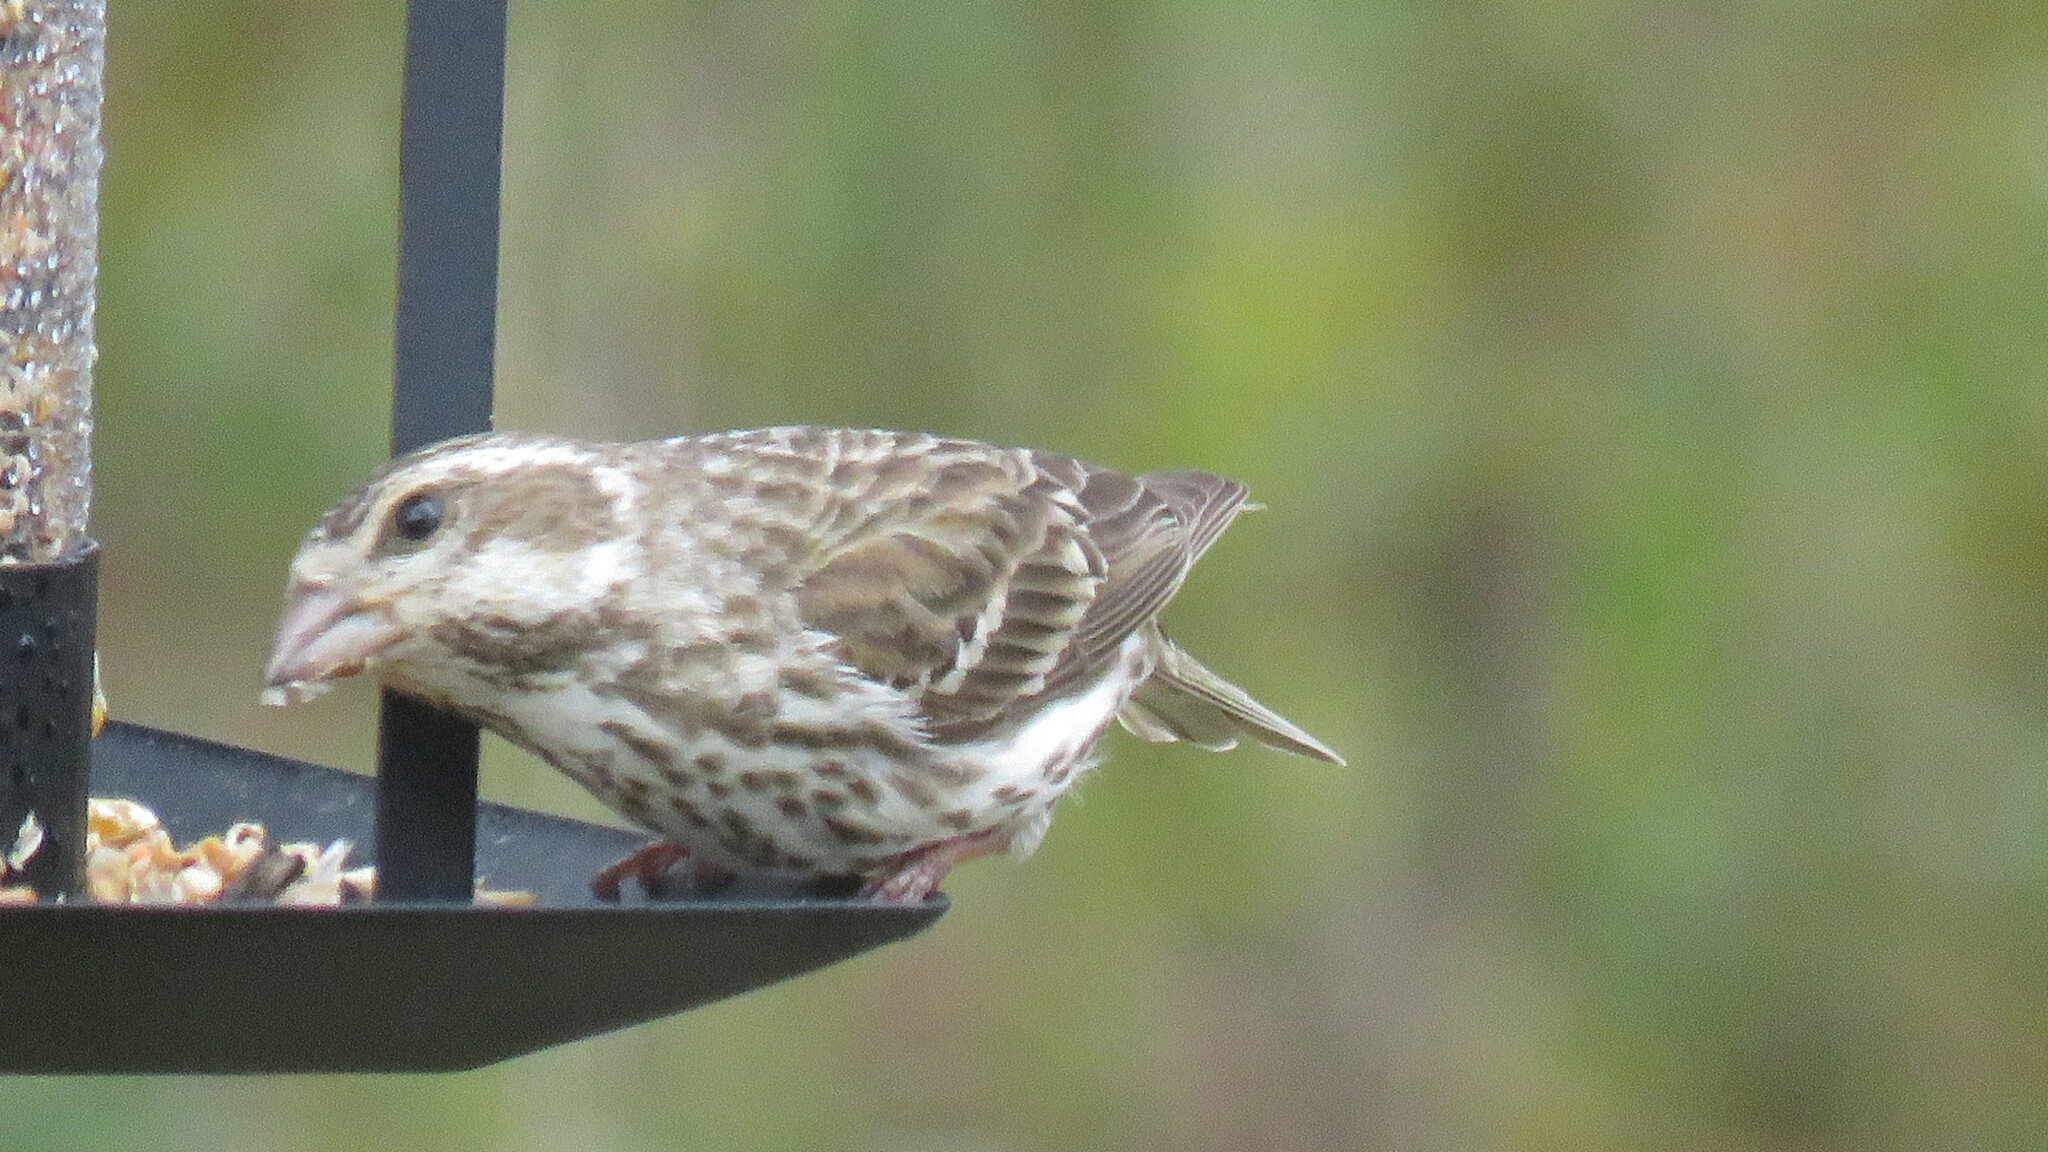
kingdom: Animalia
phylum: Chordata
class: Aves
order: Passeriformes
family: Fringillidae
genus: Haemorhous
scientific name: Haemorhous purpureus
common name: Purple finch
